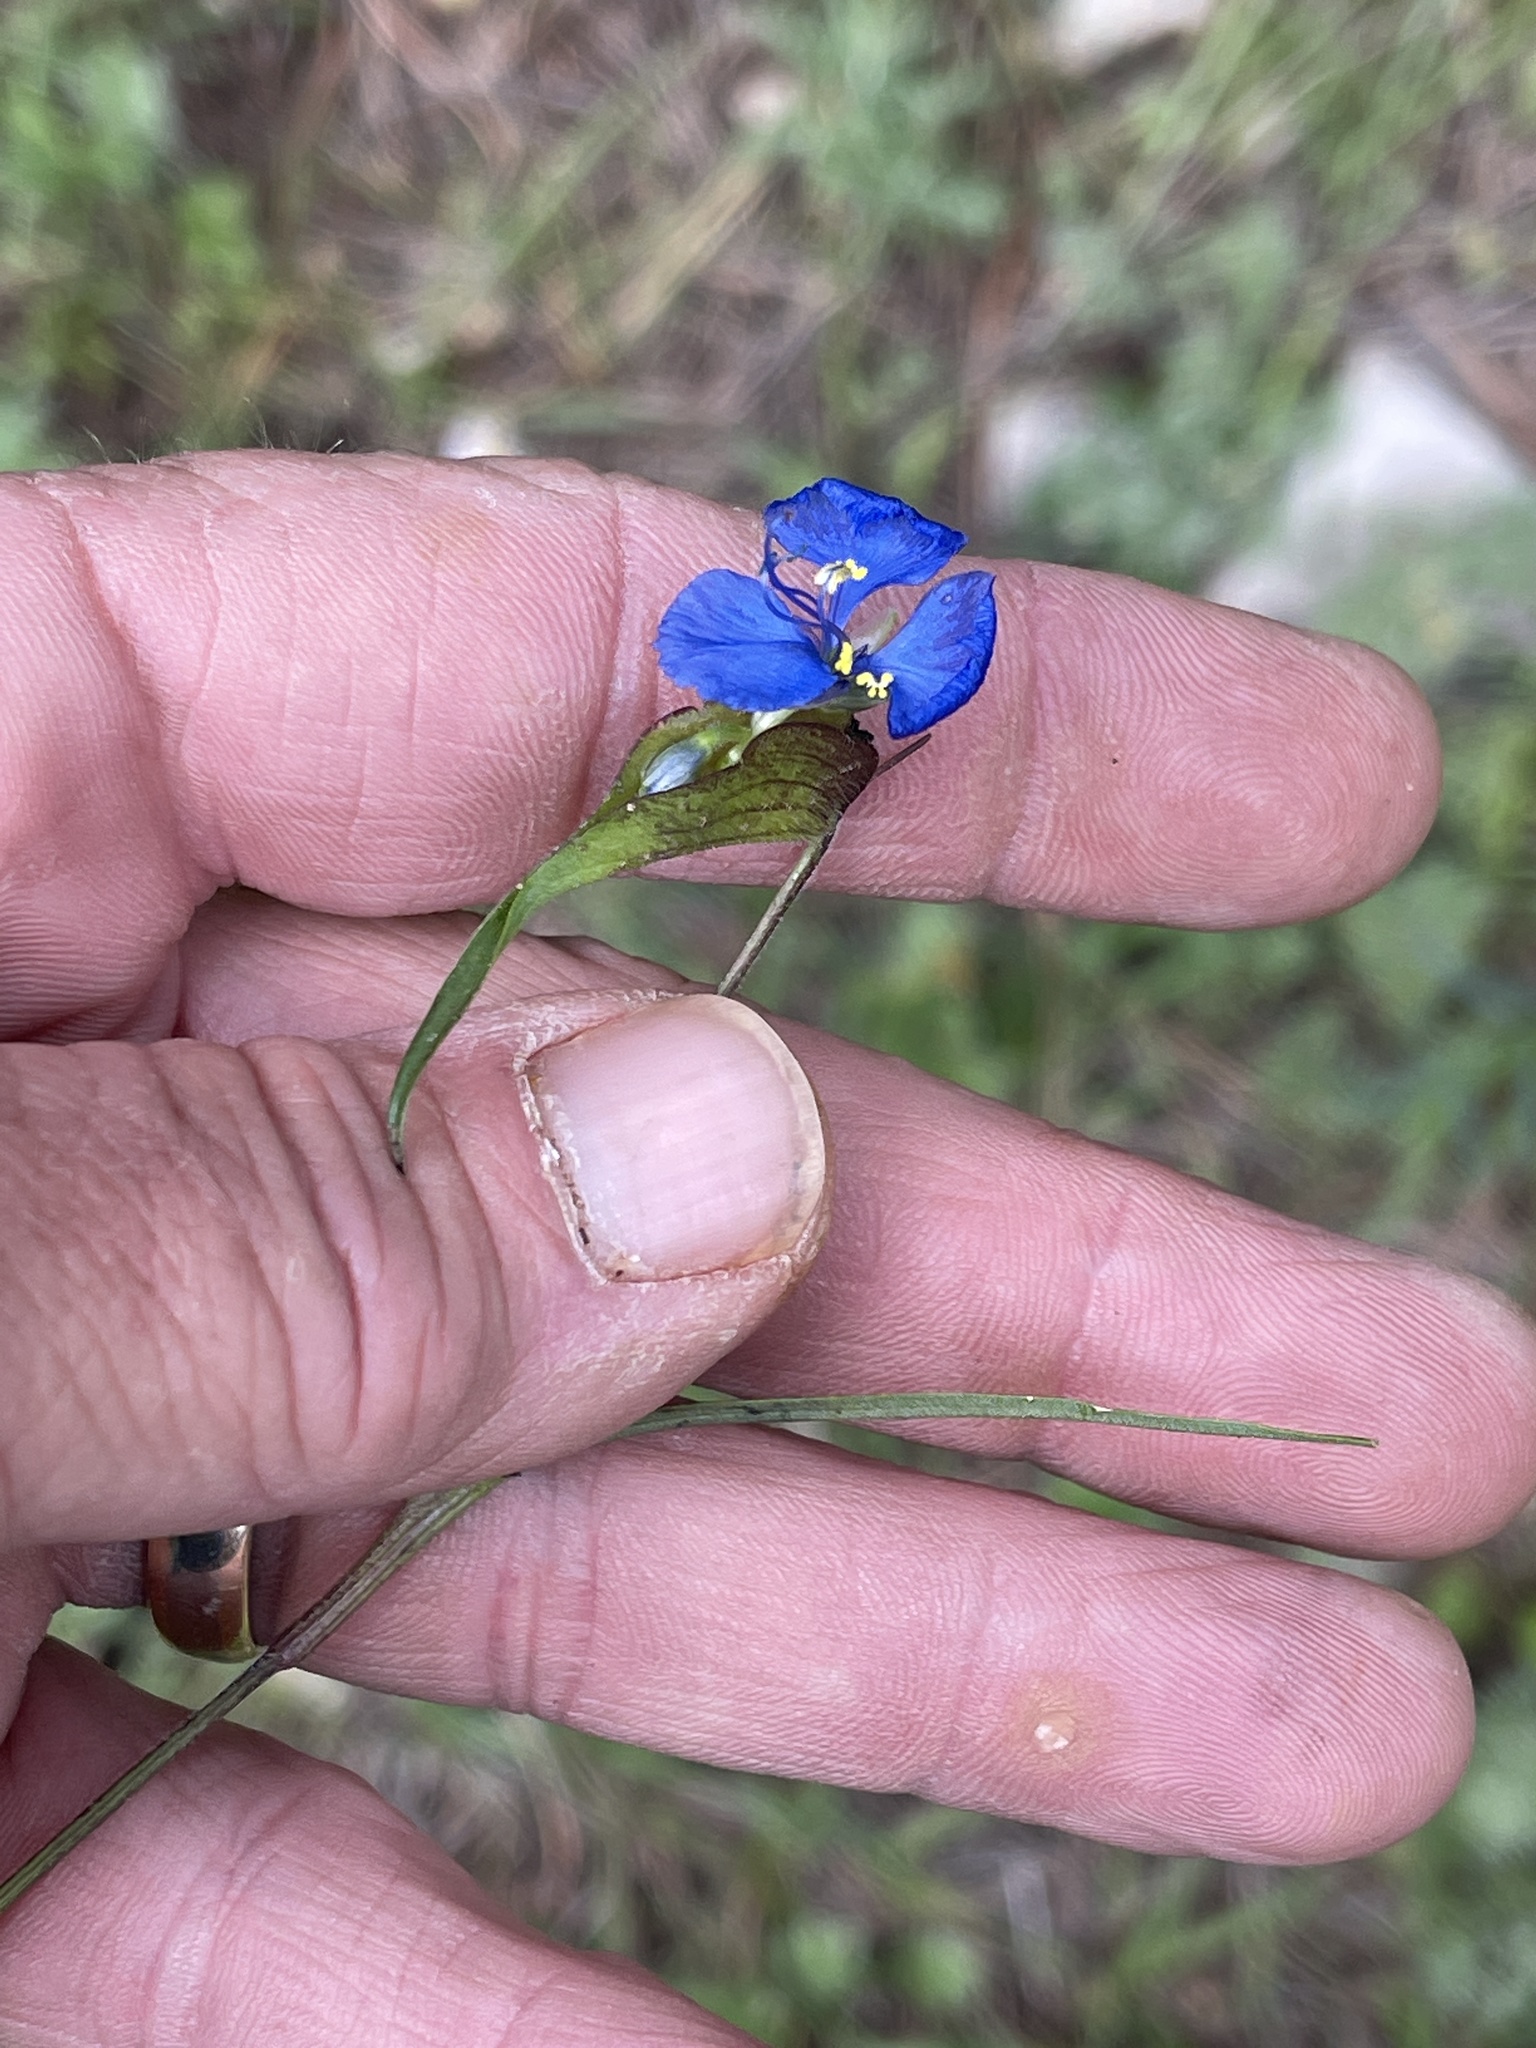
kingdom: Plantae
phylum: Tracheophyta
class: Liliopsida
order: Commelinales
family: Commelinaceae
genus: Commelina
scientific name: Commelina dianthifolia
